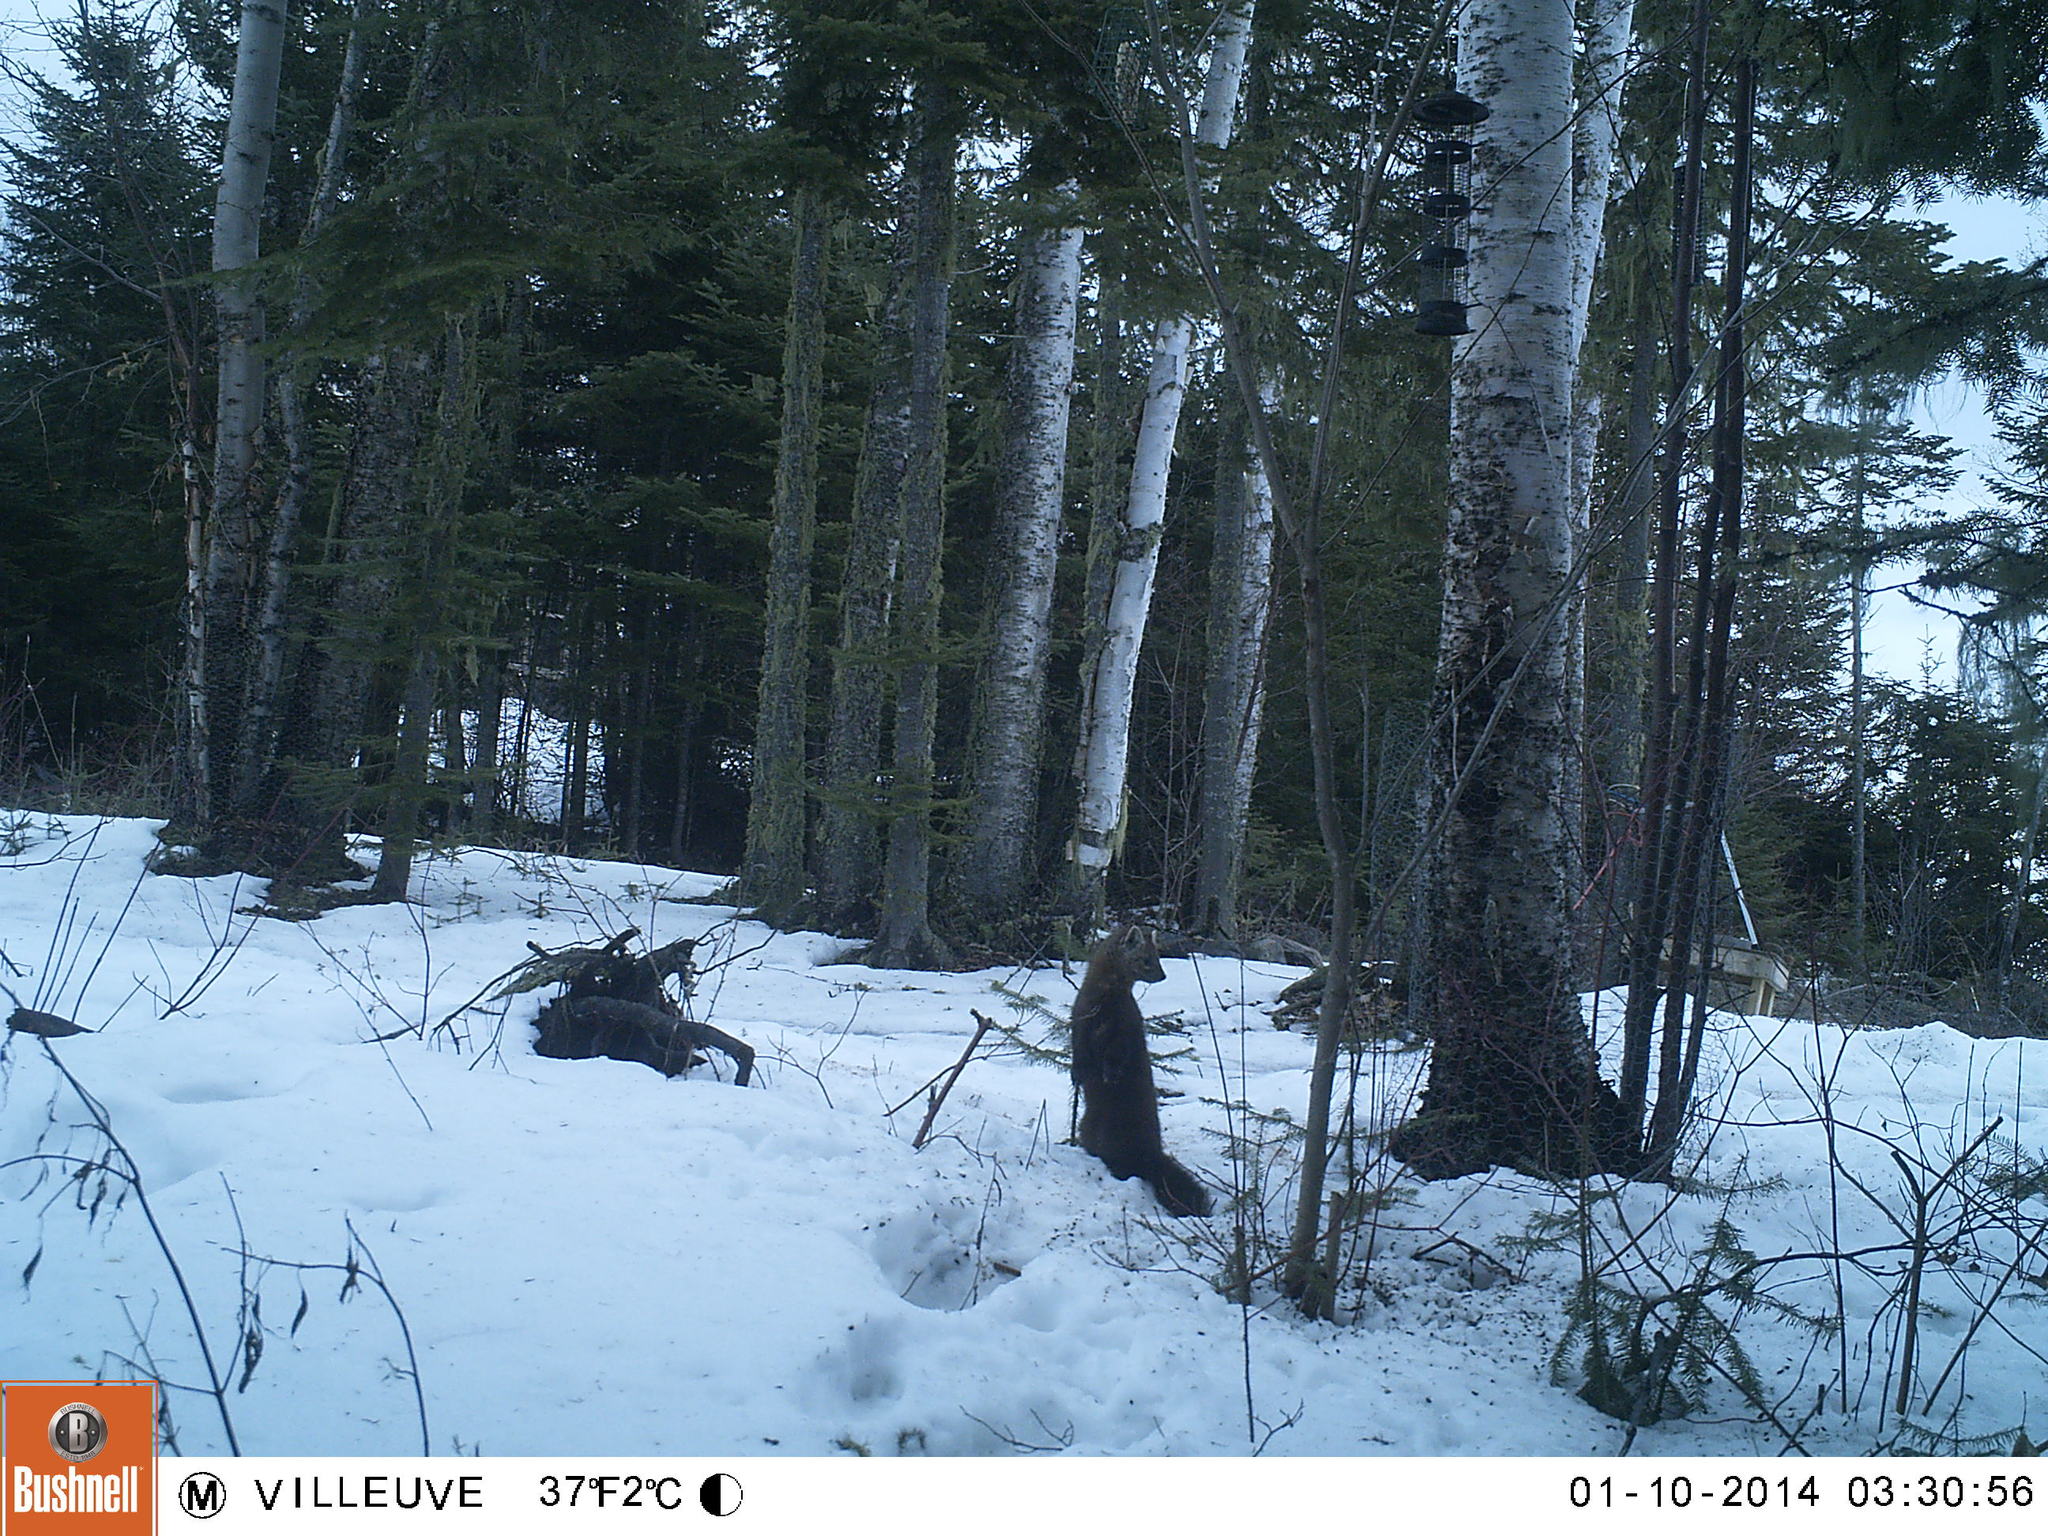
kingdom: Animalia
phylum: Chordata
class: Mammalia
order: Carnivora
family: Mustelidae
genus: Martes
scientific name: Martes americana
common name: American marten
